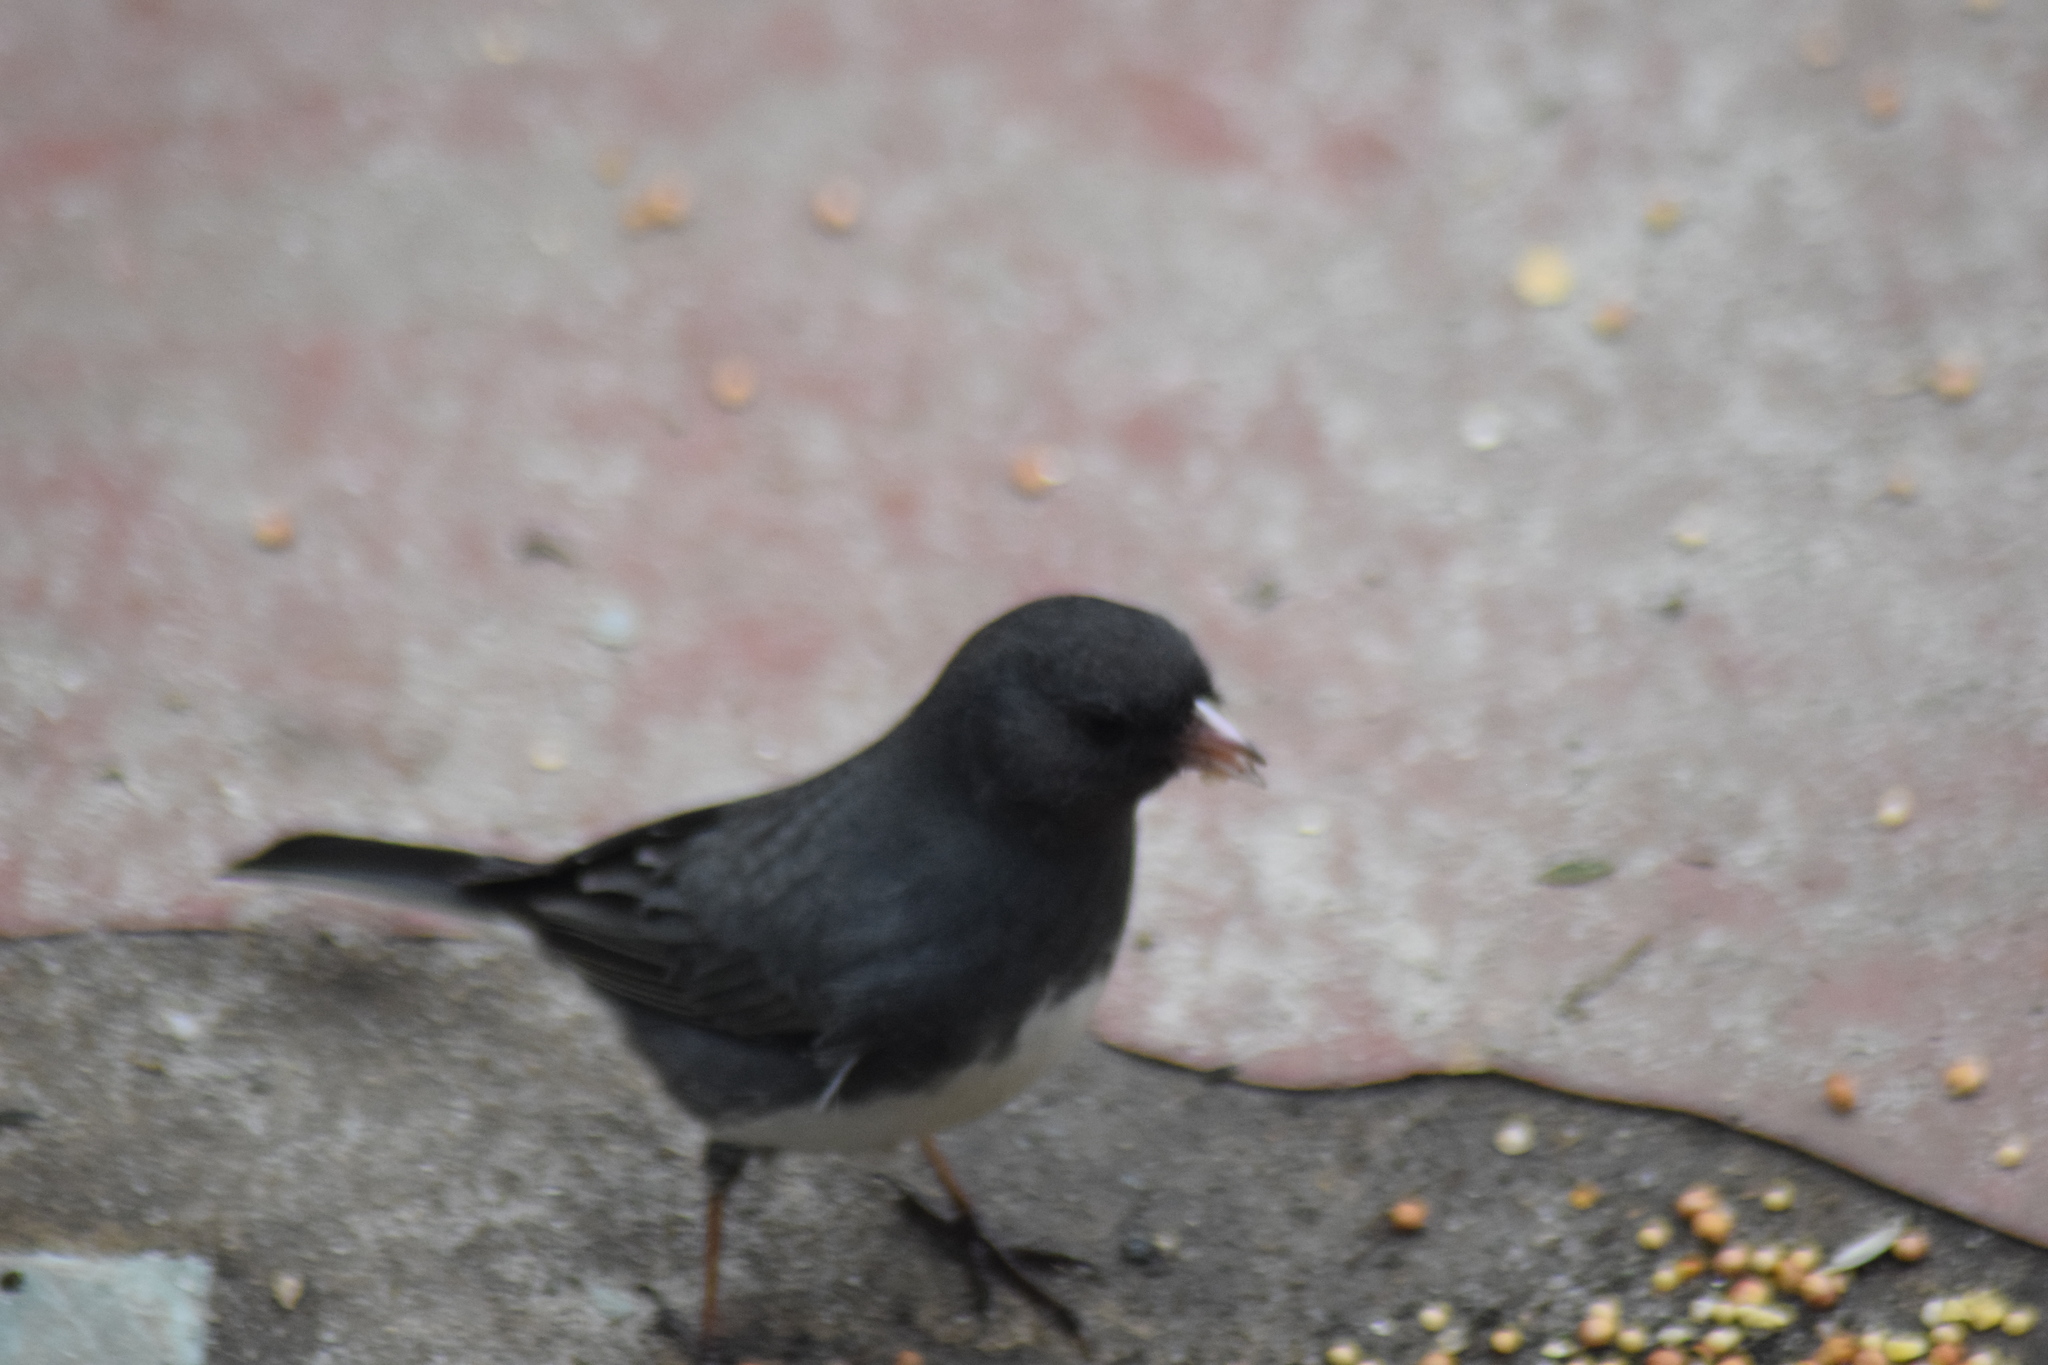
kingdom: Animalia
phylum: Chordata
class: Aves
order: Passeriformes
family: Passerellidae
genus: Junco
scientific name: Junco hyemalis
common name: Dark-eyed junco
